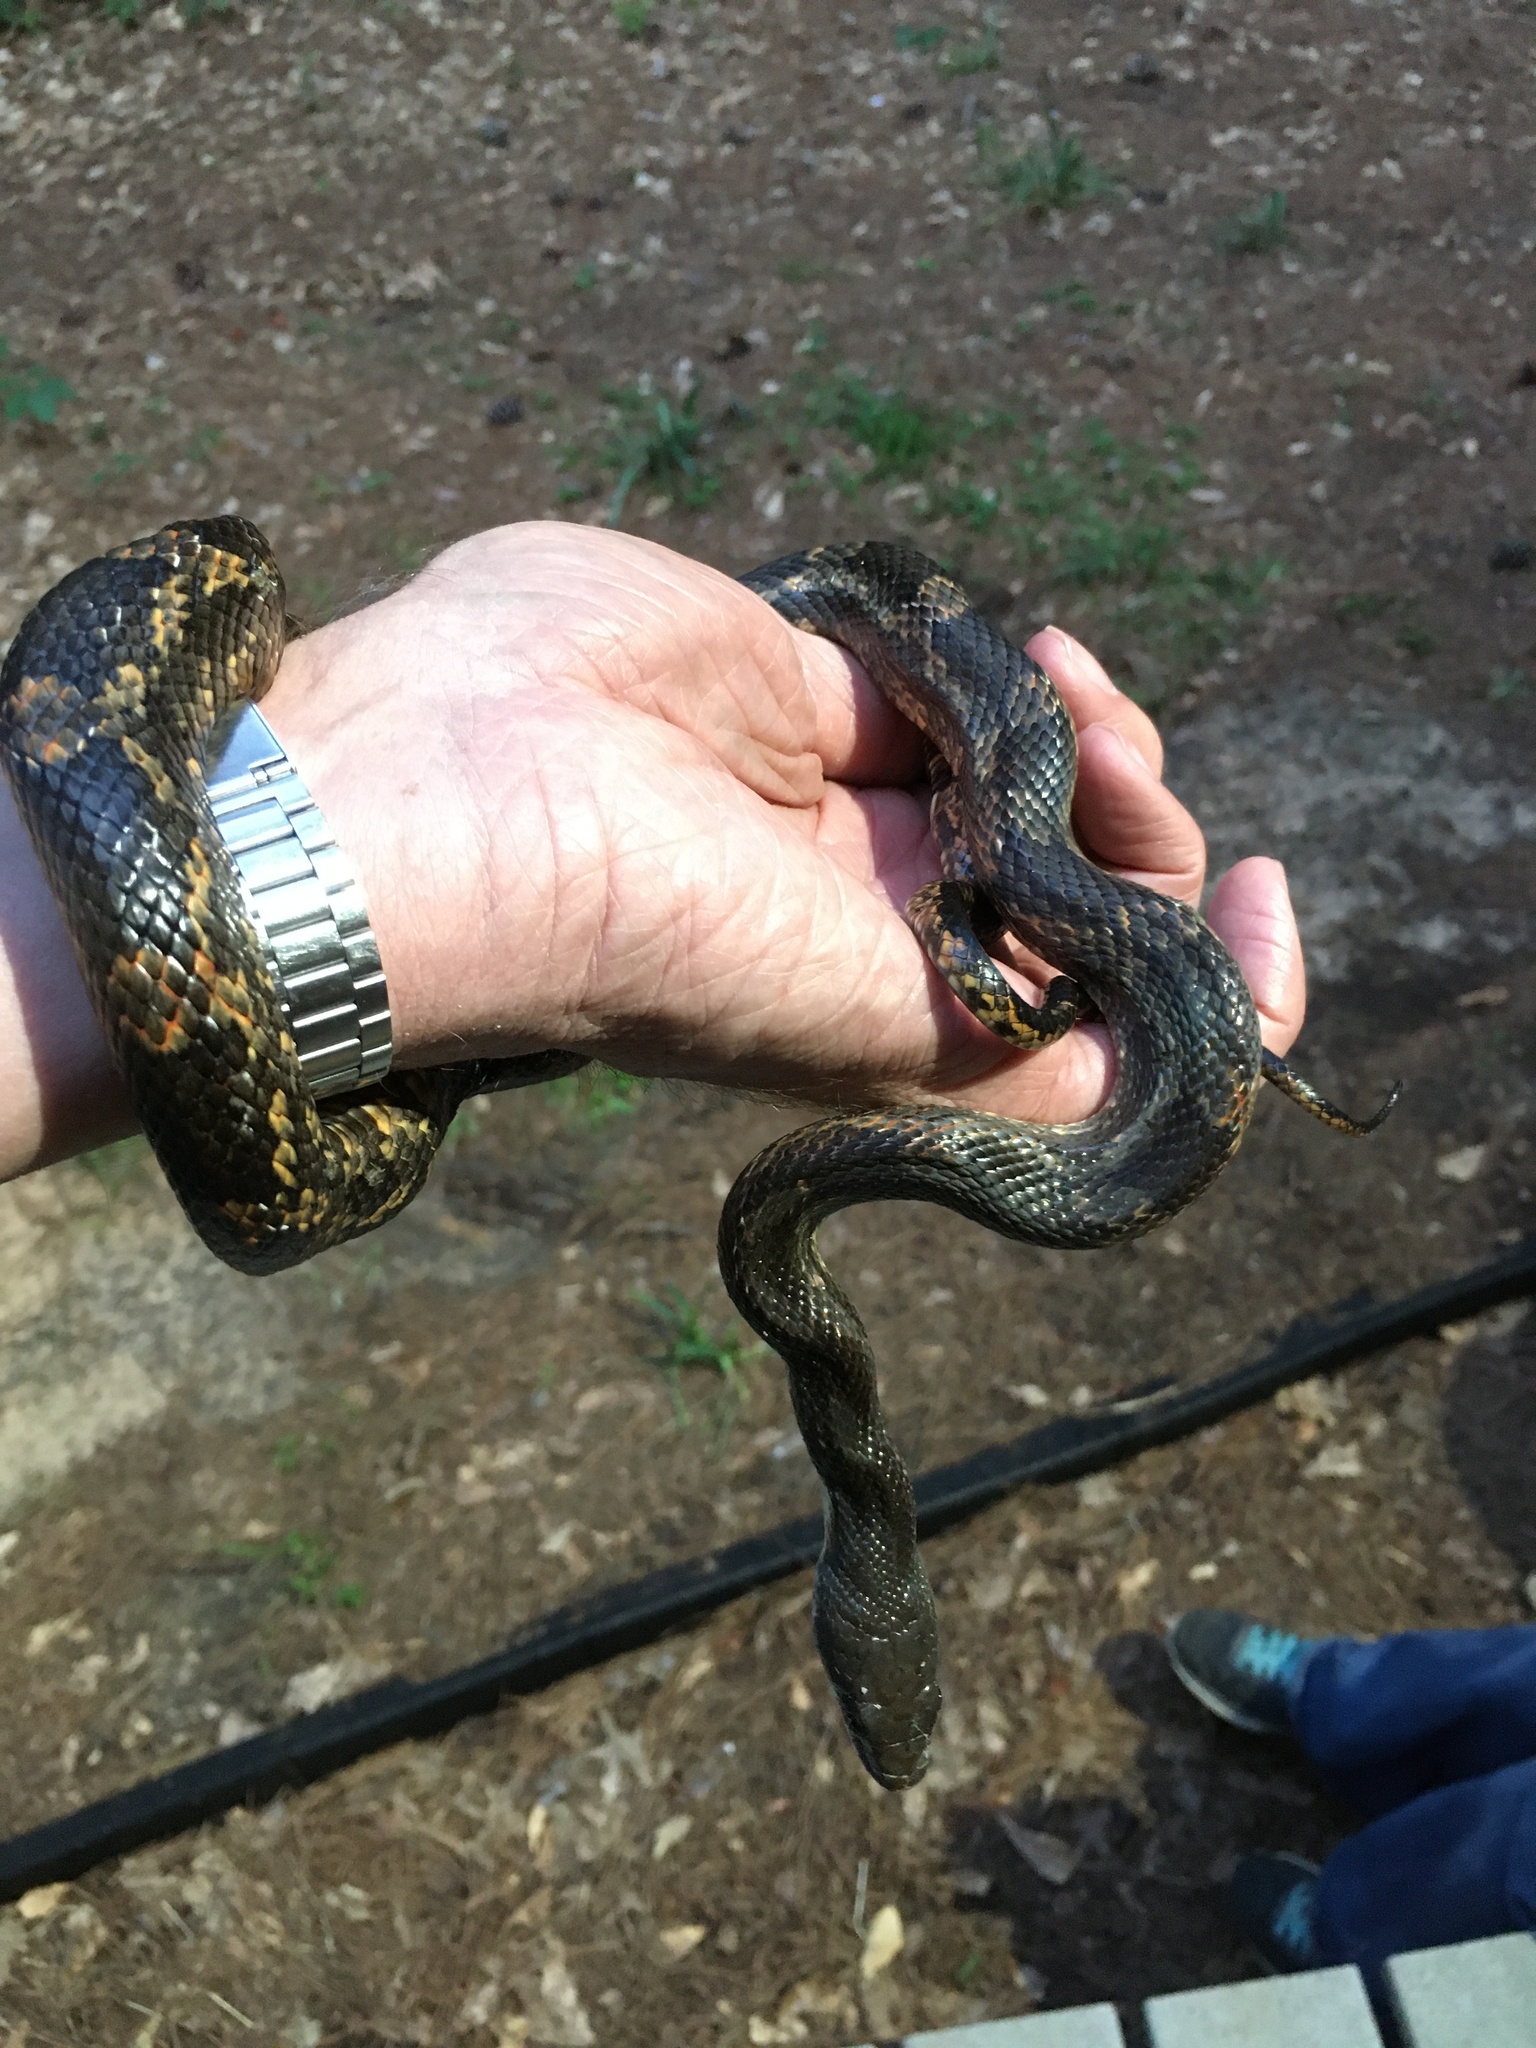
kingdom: Animalia
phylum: Chordata
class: Squamata
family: Colubridae
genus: Pantherophis
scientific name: Pantherophis obsoletus
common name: Black rat snake
